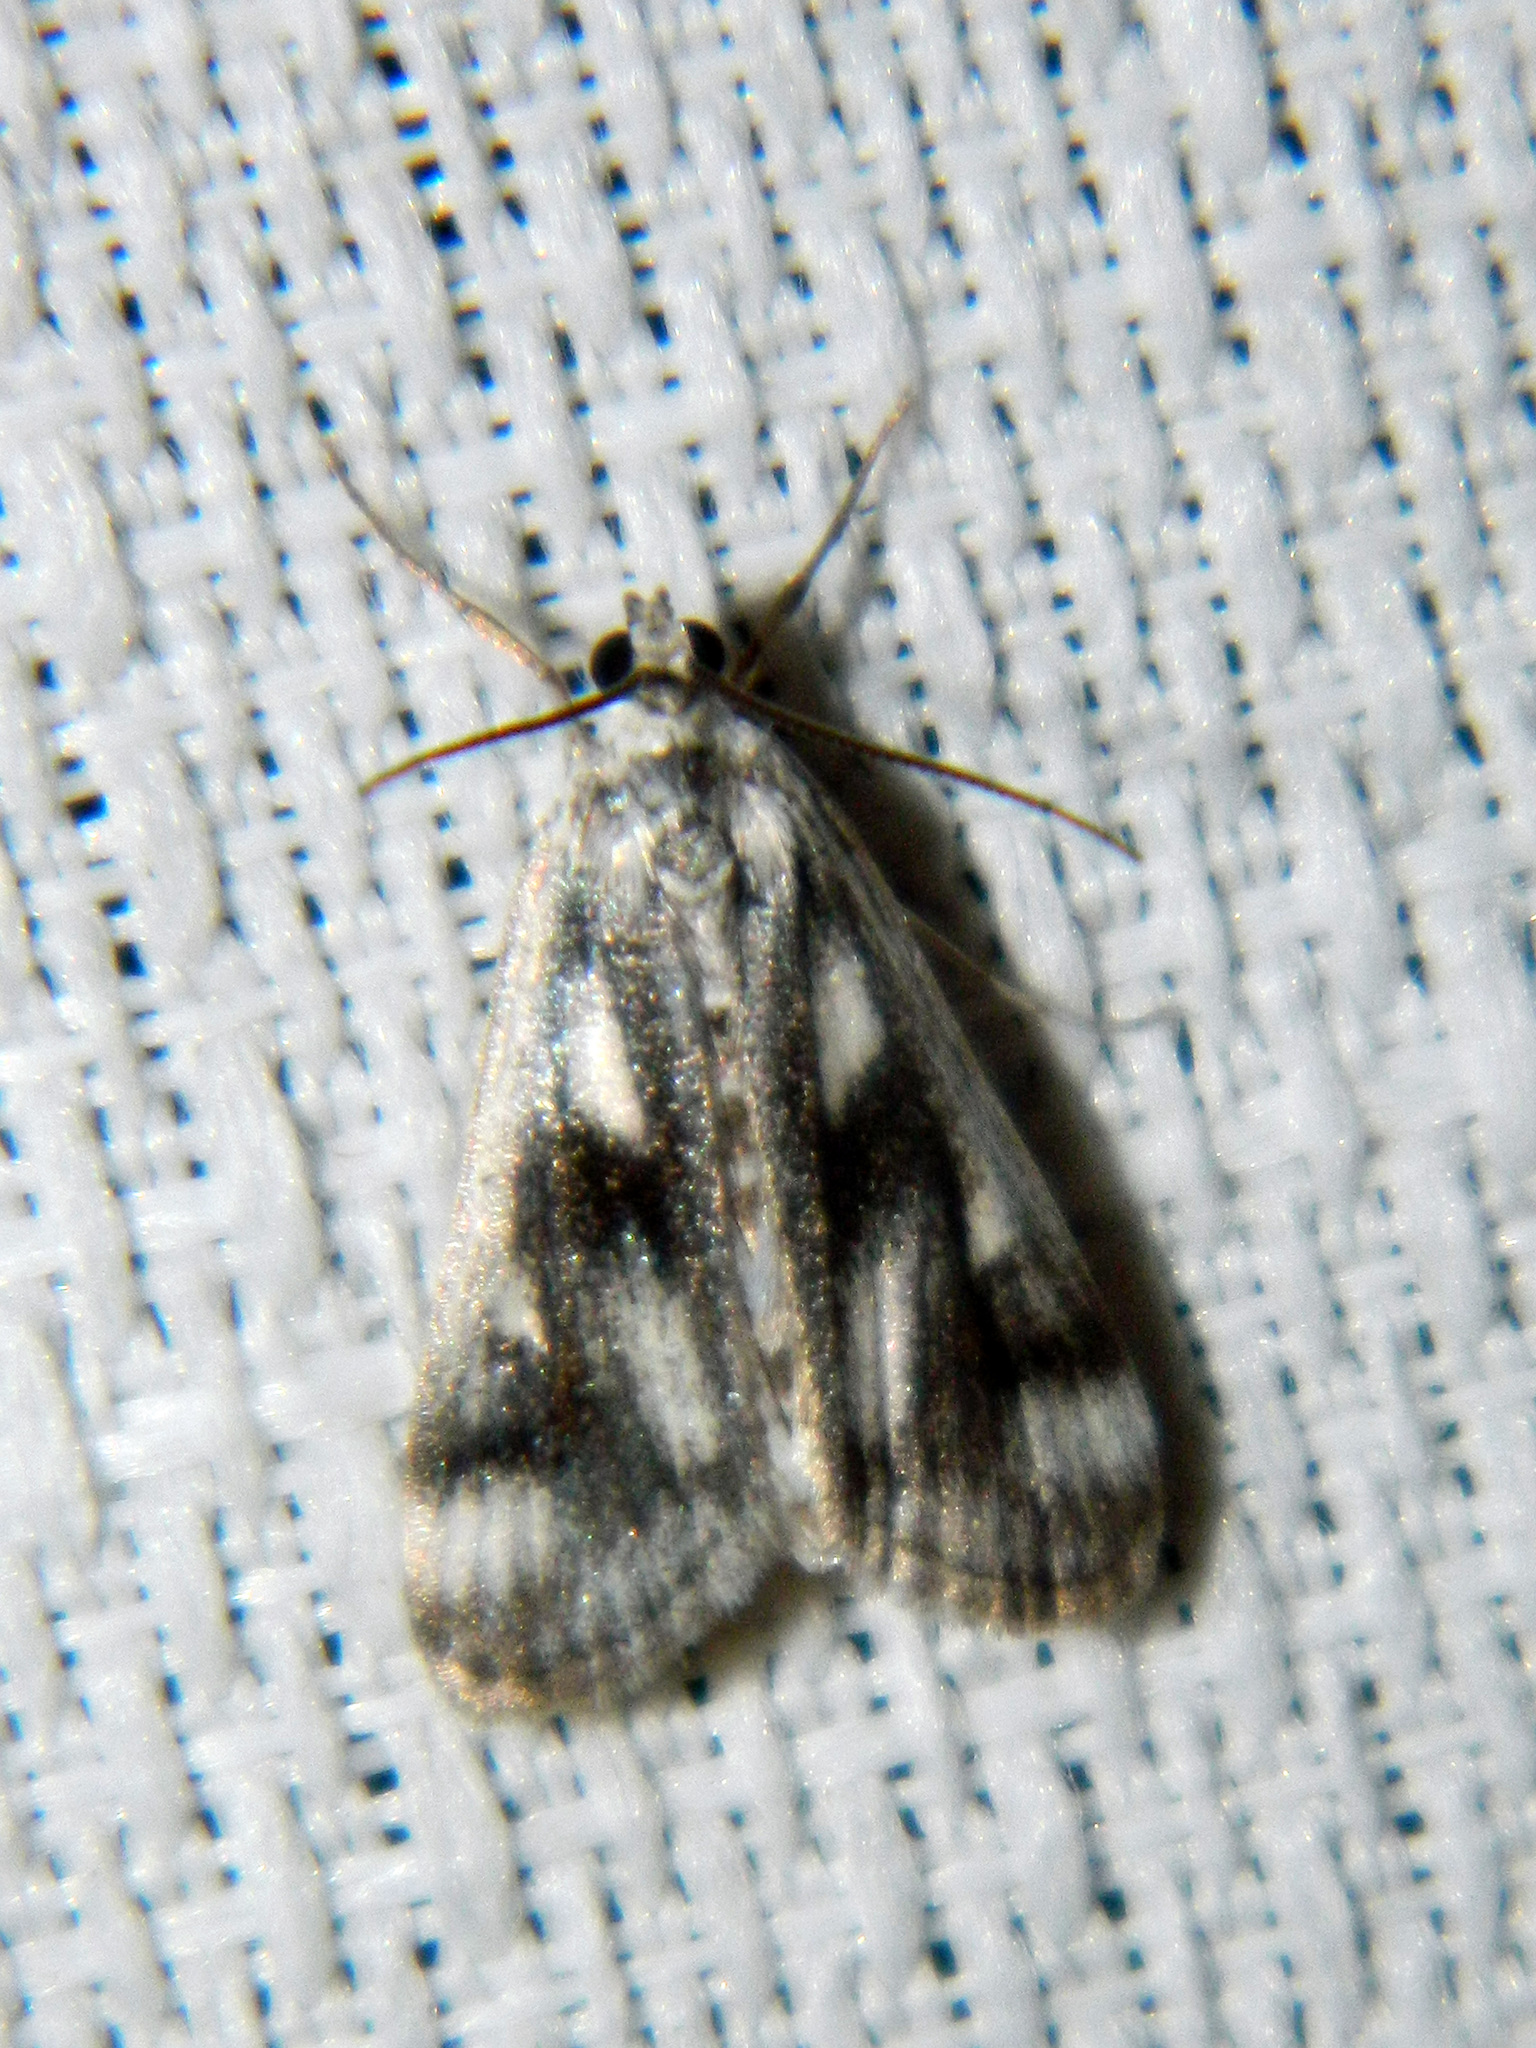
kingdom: Animalia
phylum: Arthropoda
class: Insecta
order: Lepidoptera
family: Crambidae
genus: Parapoynx
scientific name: Parapoynx maculalis
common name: Polymorphic pondweed moth
